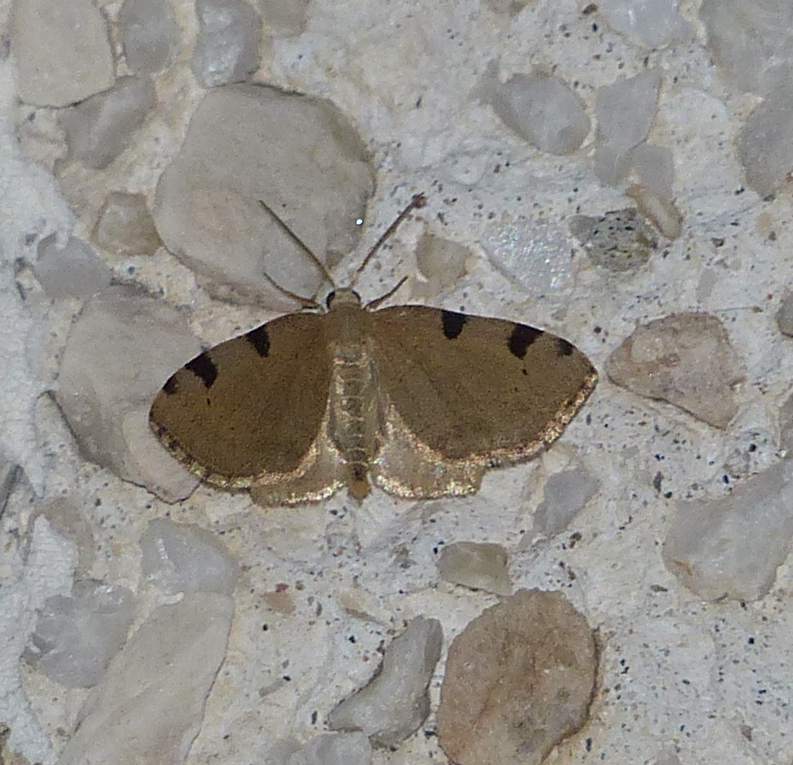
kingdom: Animalia
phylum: Arthropoda
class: Insecta
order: Lepidoptera
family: Geometridae
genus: Heterophleps
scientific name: Heterophleps triguttaria
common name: Three-spotted fillip
